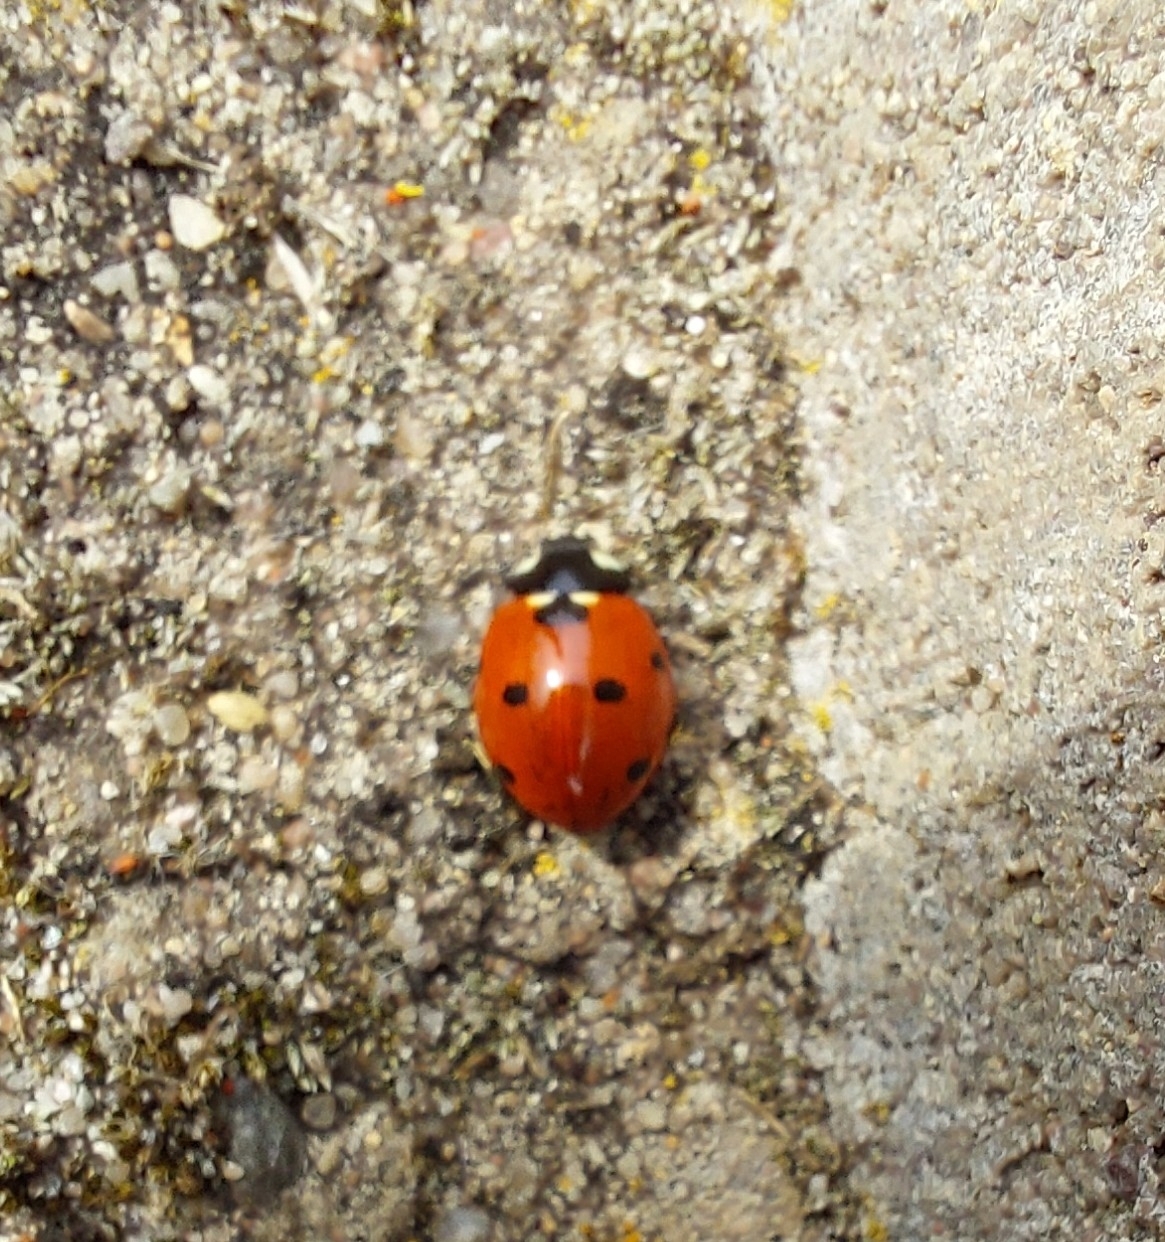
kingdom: Animalia
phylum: Arthropoda
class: Insecta
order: Coleoptera
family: Coccinellidae
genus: Coccinella
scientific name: Coccinella septempunctata
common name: Sevenspotted lady beetle
